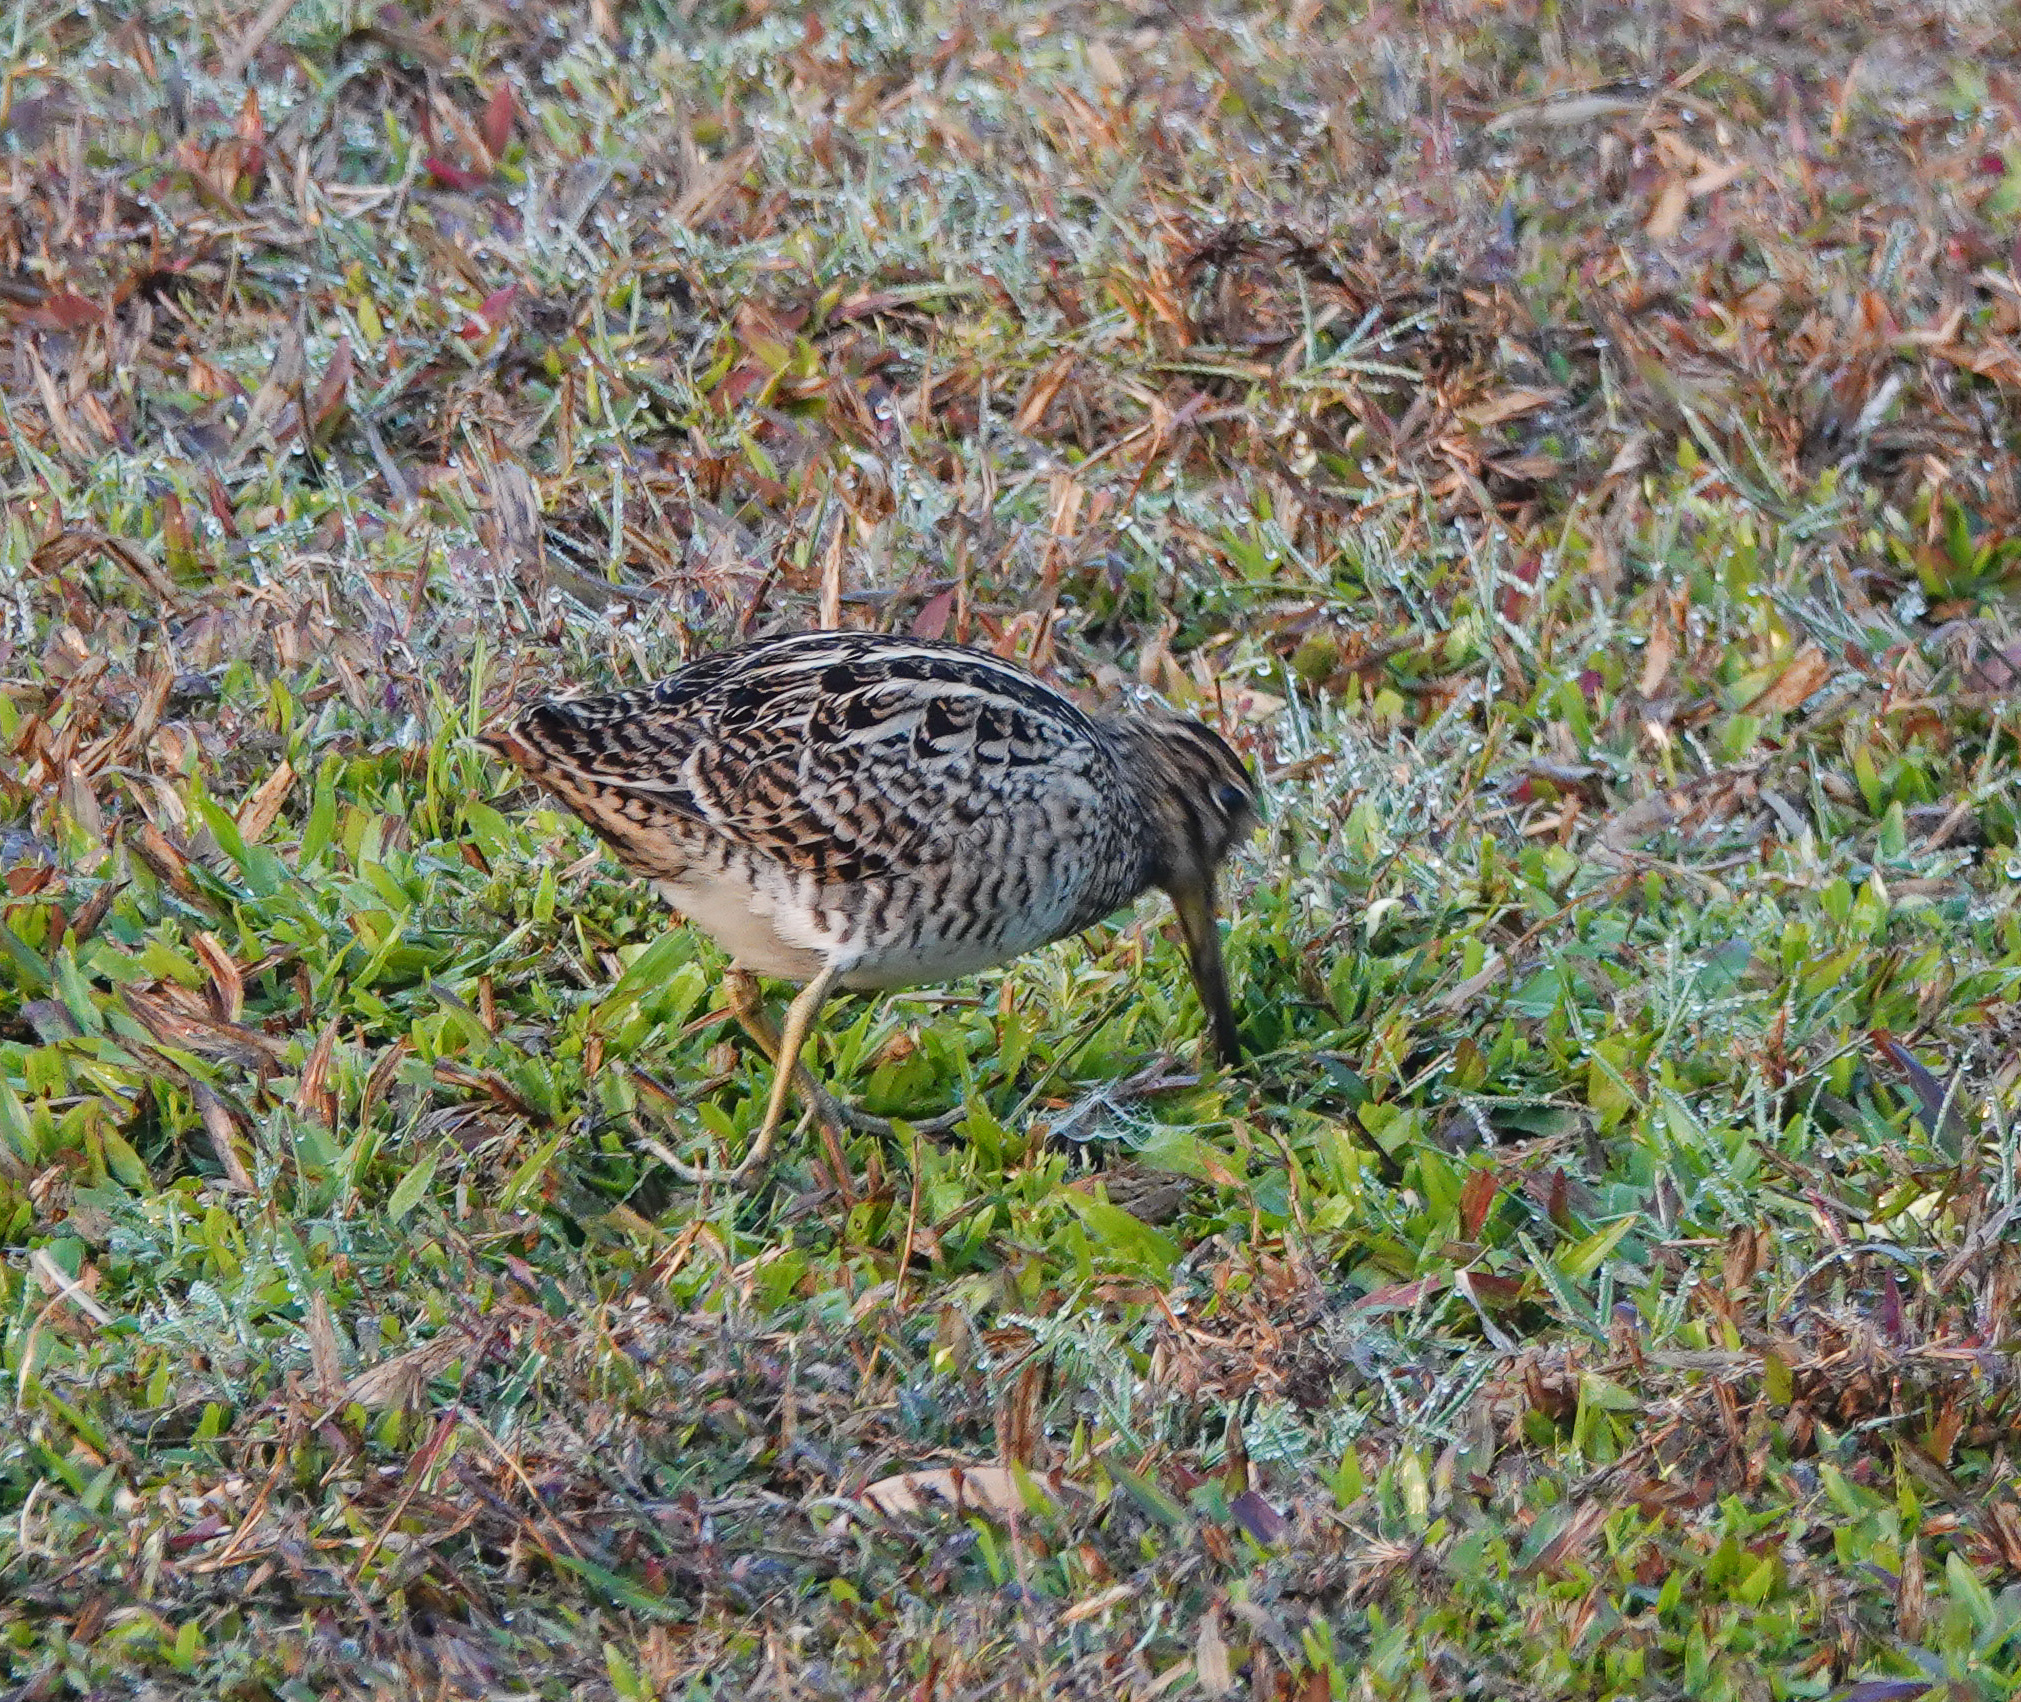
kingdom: Animalia
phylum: Chordata
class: Aves
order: Charadriiformes
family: Scolopacidae
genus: Gallinago
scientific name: Gallinago gallinago
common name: Common snipe
